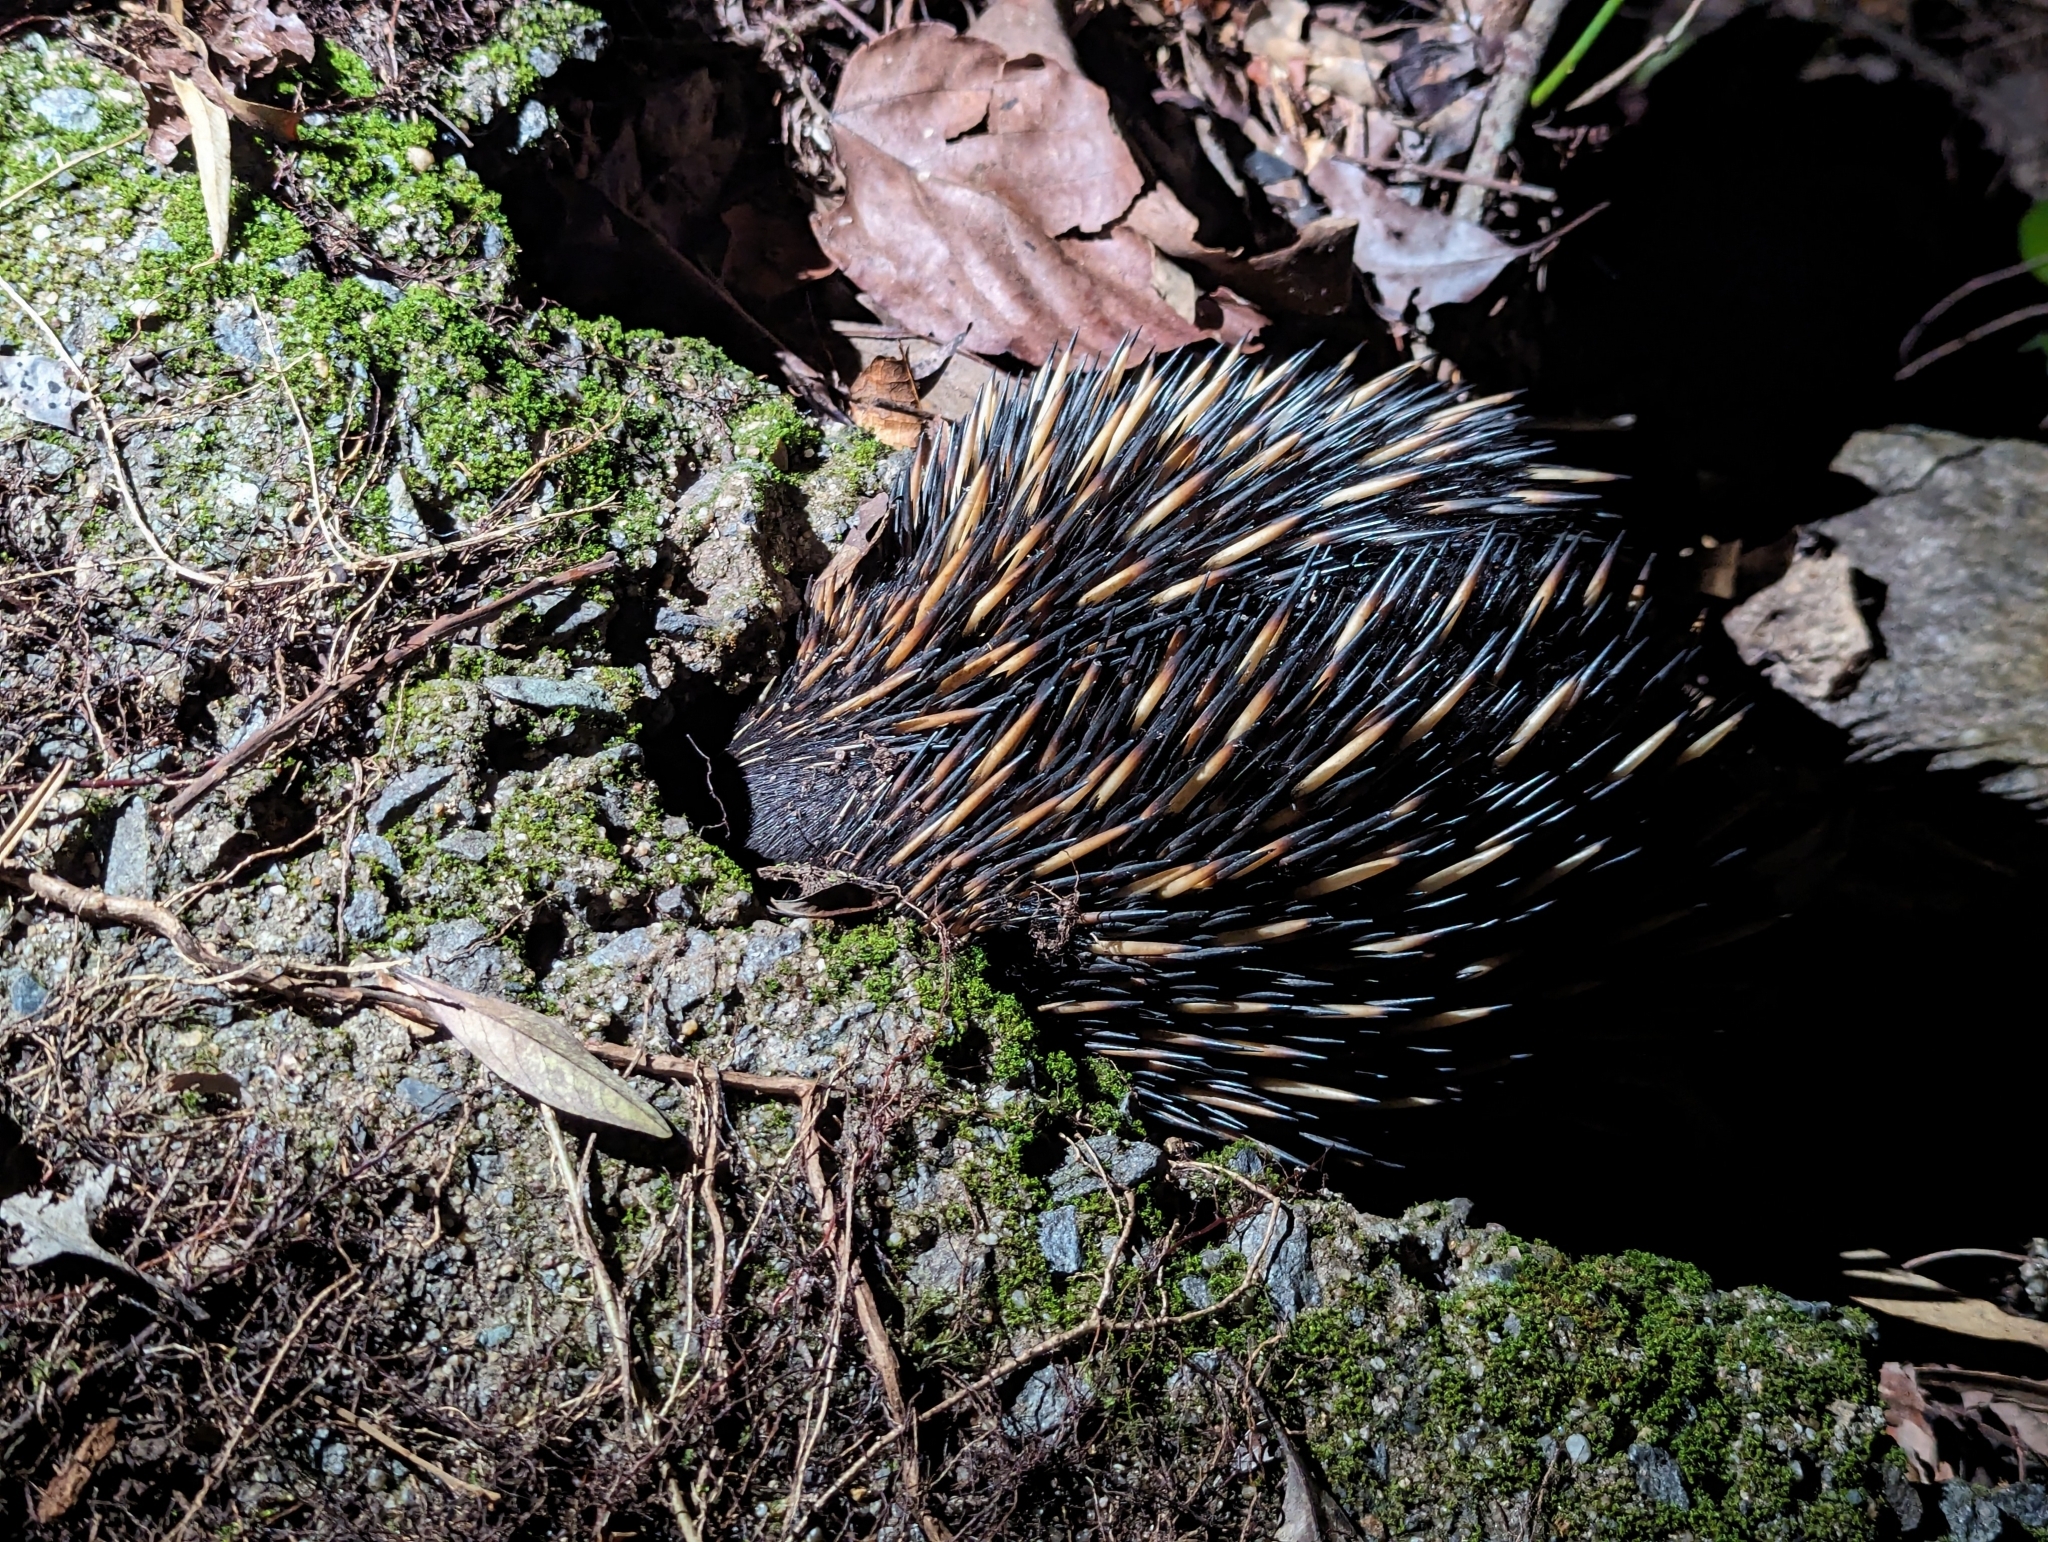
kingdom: Animalia
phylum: Chordata
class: Mammalia
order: Monotremata
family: Tachyglossidae
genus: Tachyglossus
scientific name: Tachyglossus aculeatus
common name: Short-beaked echidna
